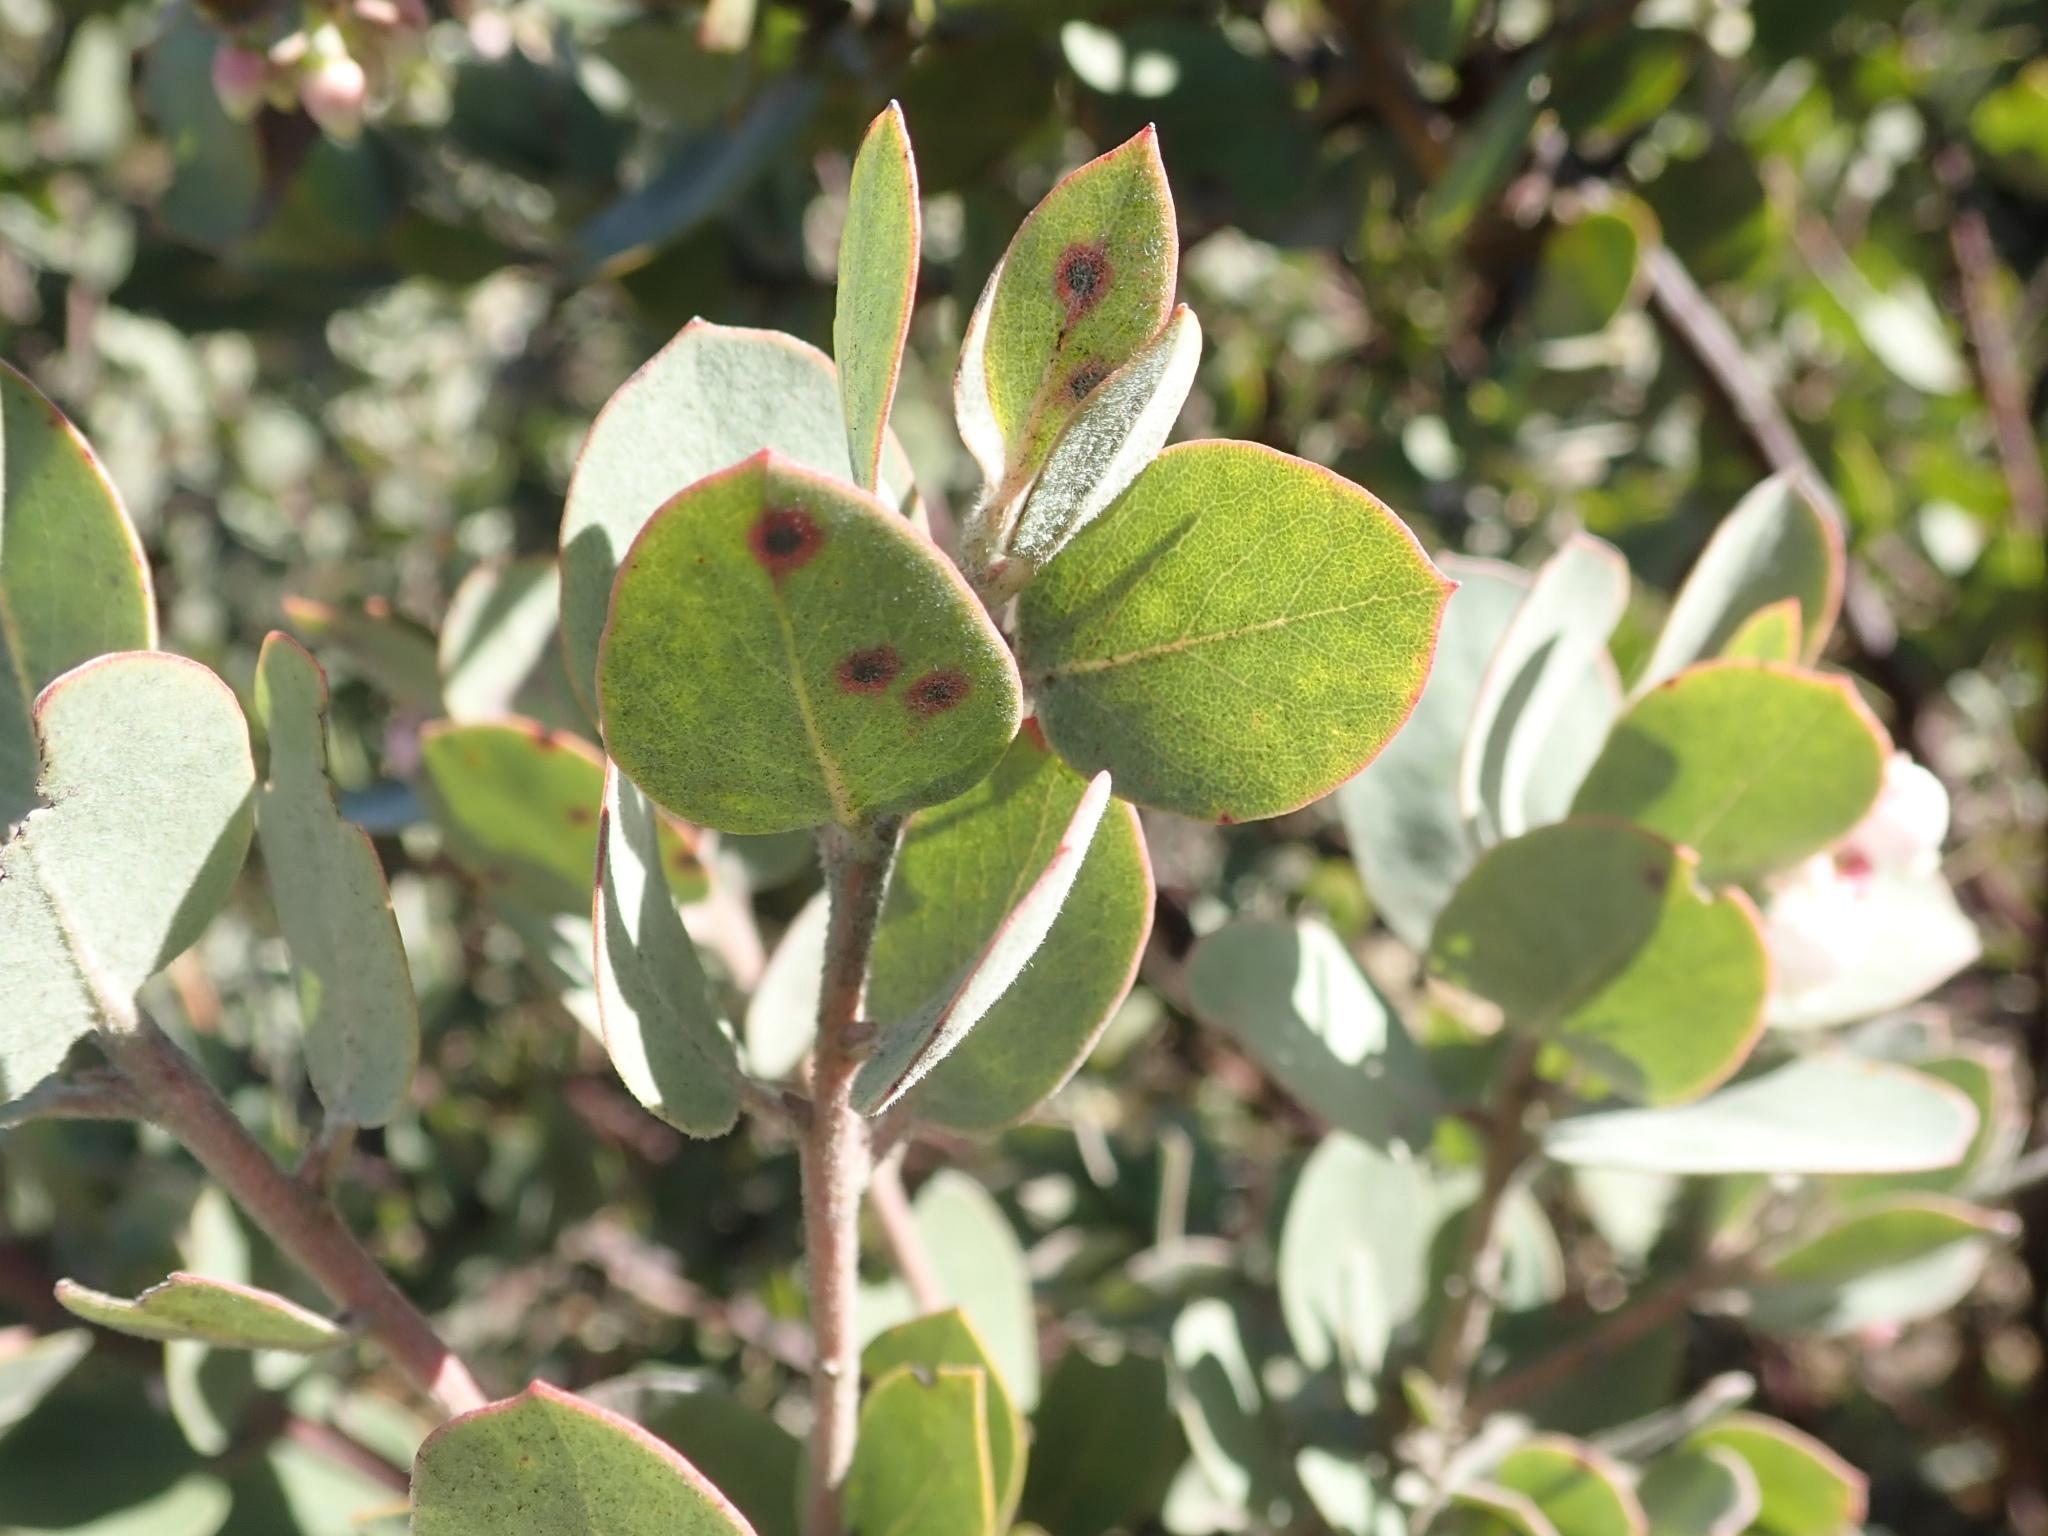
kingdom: Plantae
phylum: Tracheophyta
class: Magnoliopsida
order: Ericales
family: Ericaceae
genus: Arctostaphylos
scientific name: Arctostaphylos canescens
